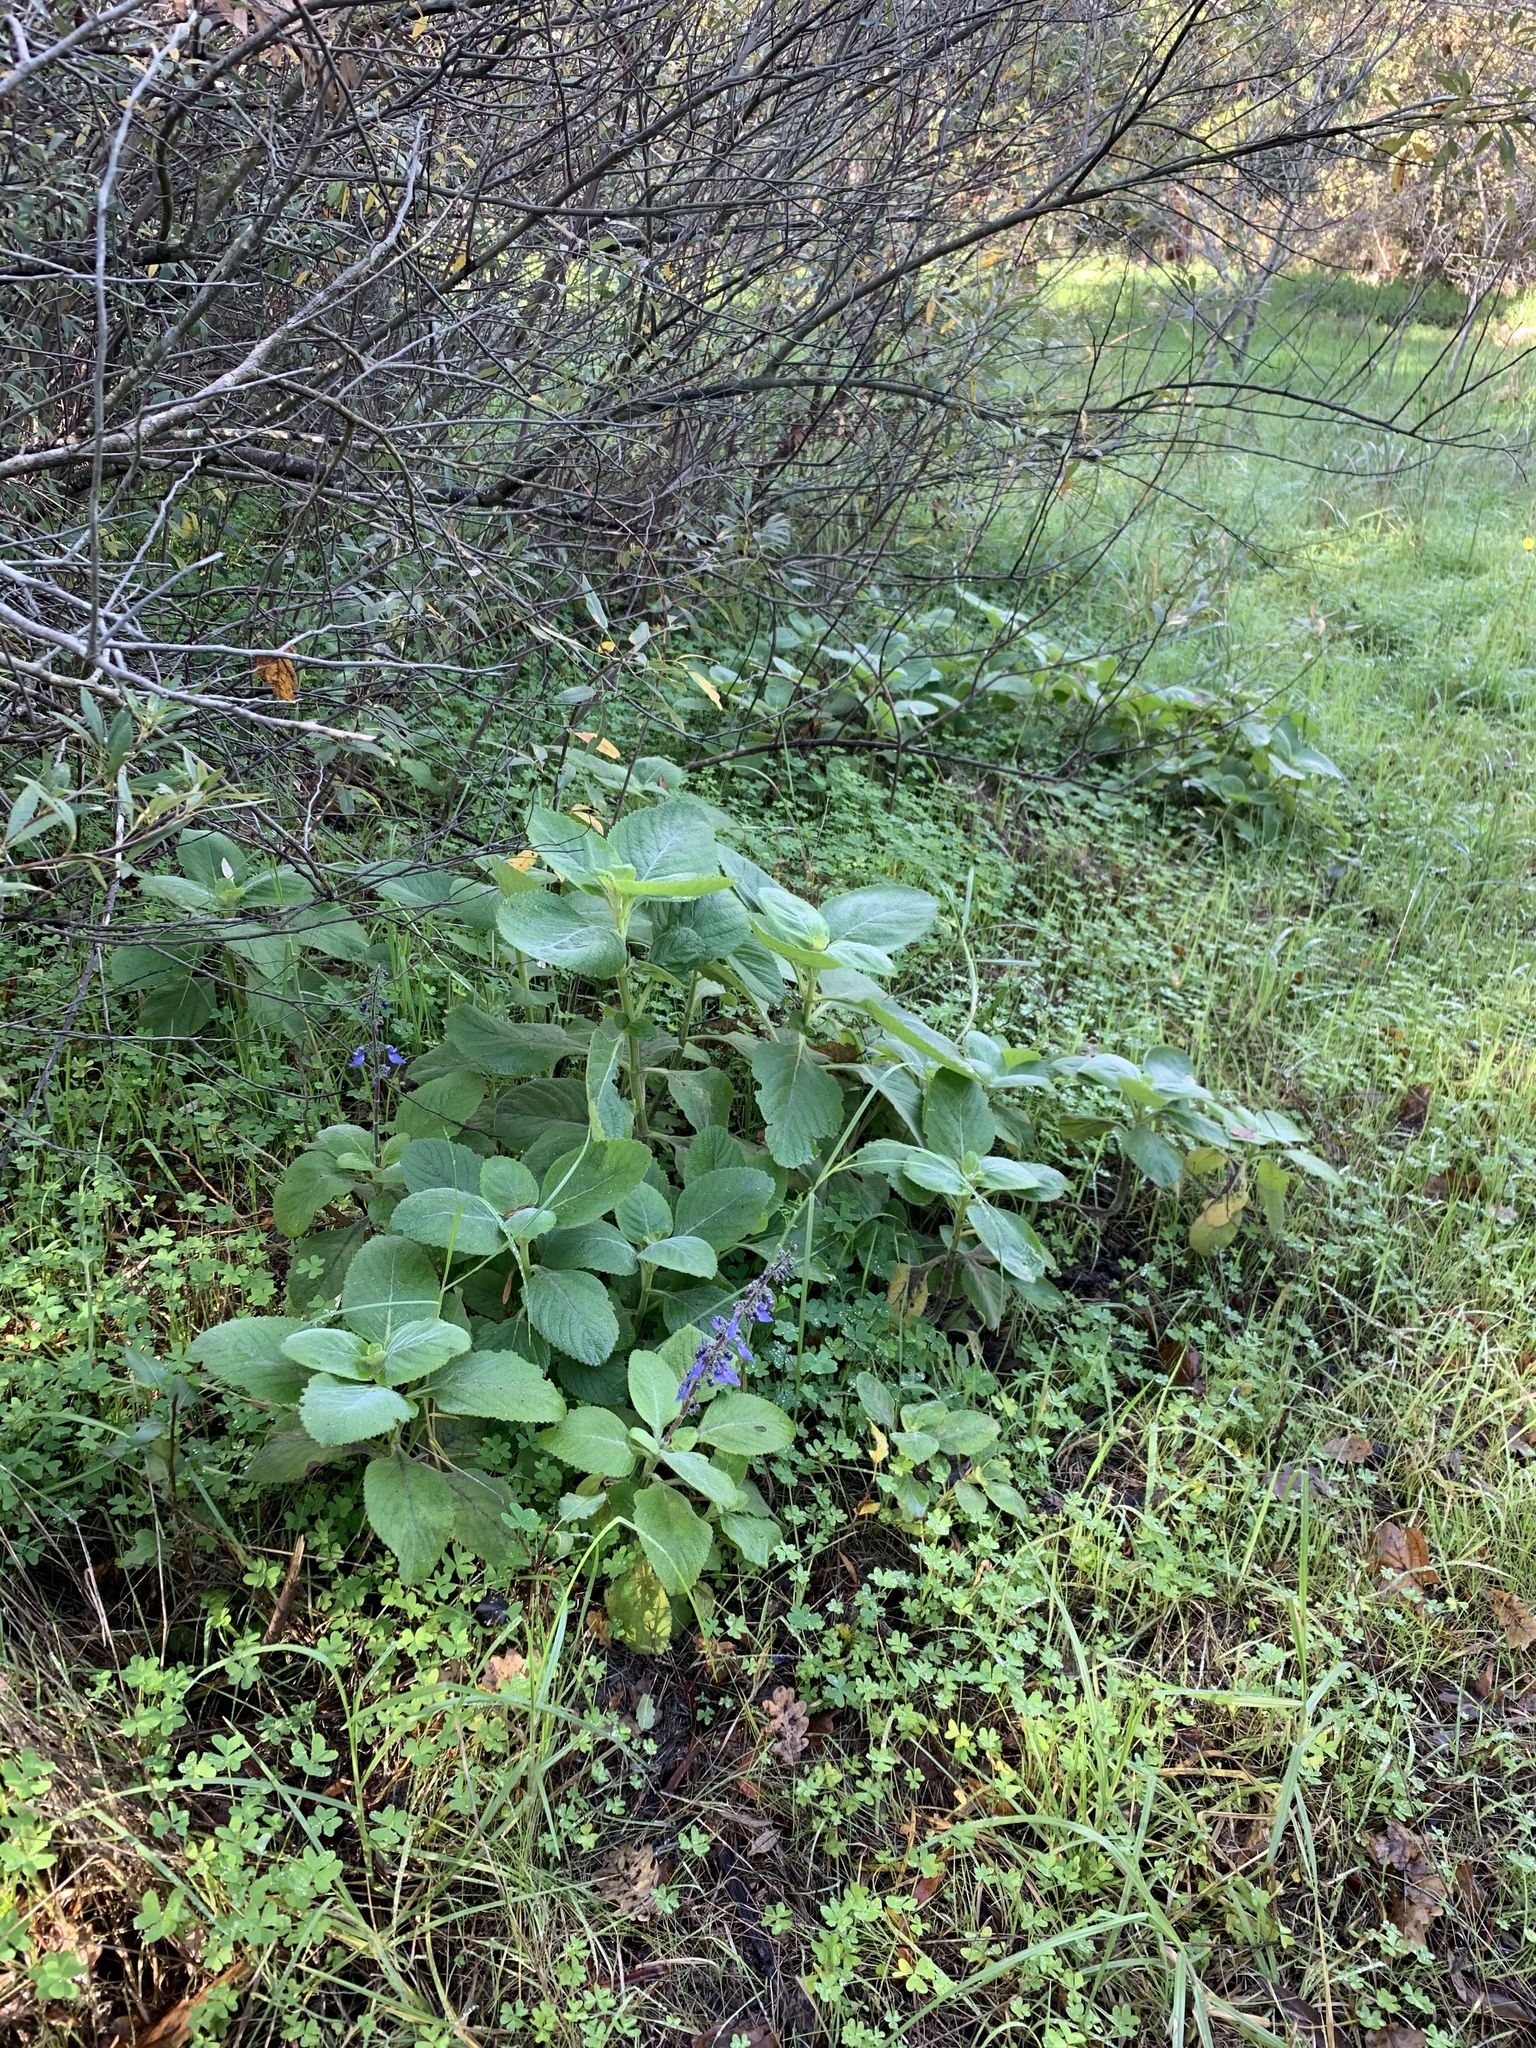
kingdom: Plantae
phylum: Tracheophyta
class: Magnoliopsida
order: Lamiales
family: Lamiaceae
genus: Coleus
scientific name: Coleus barbatus
